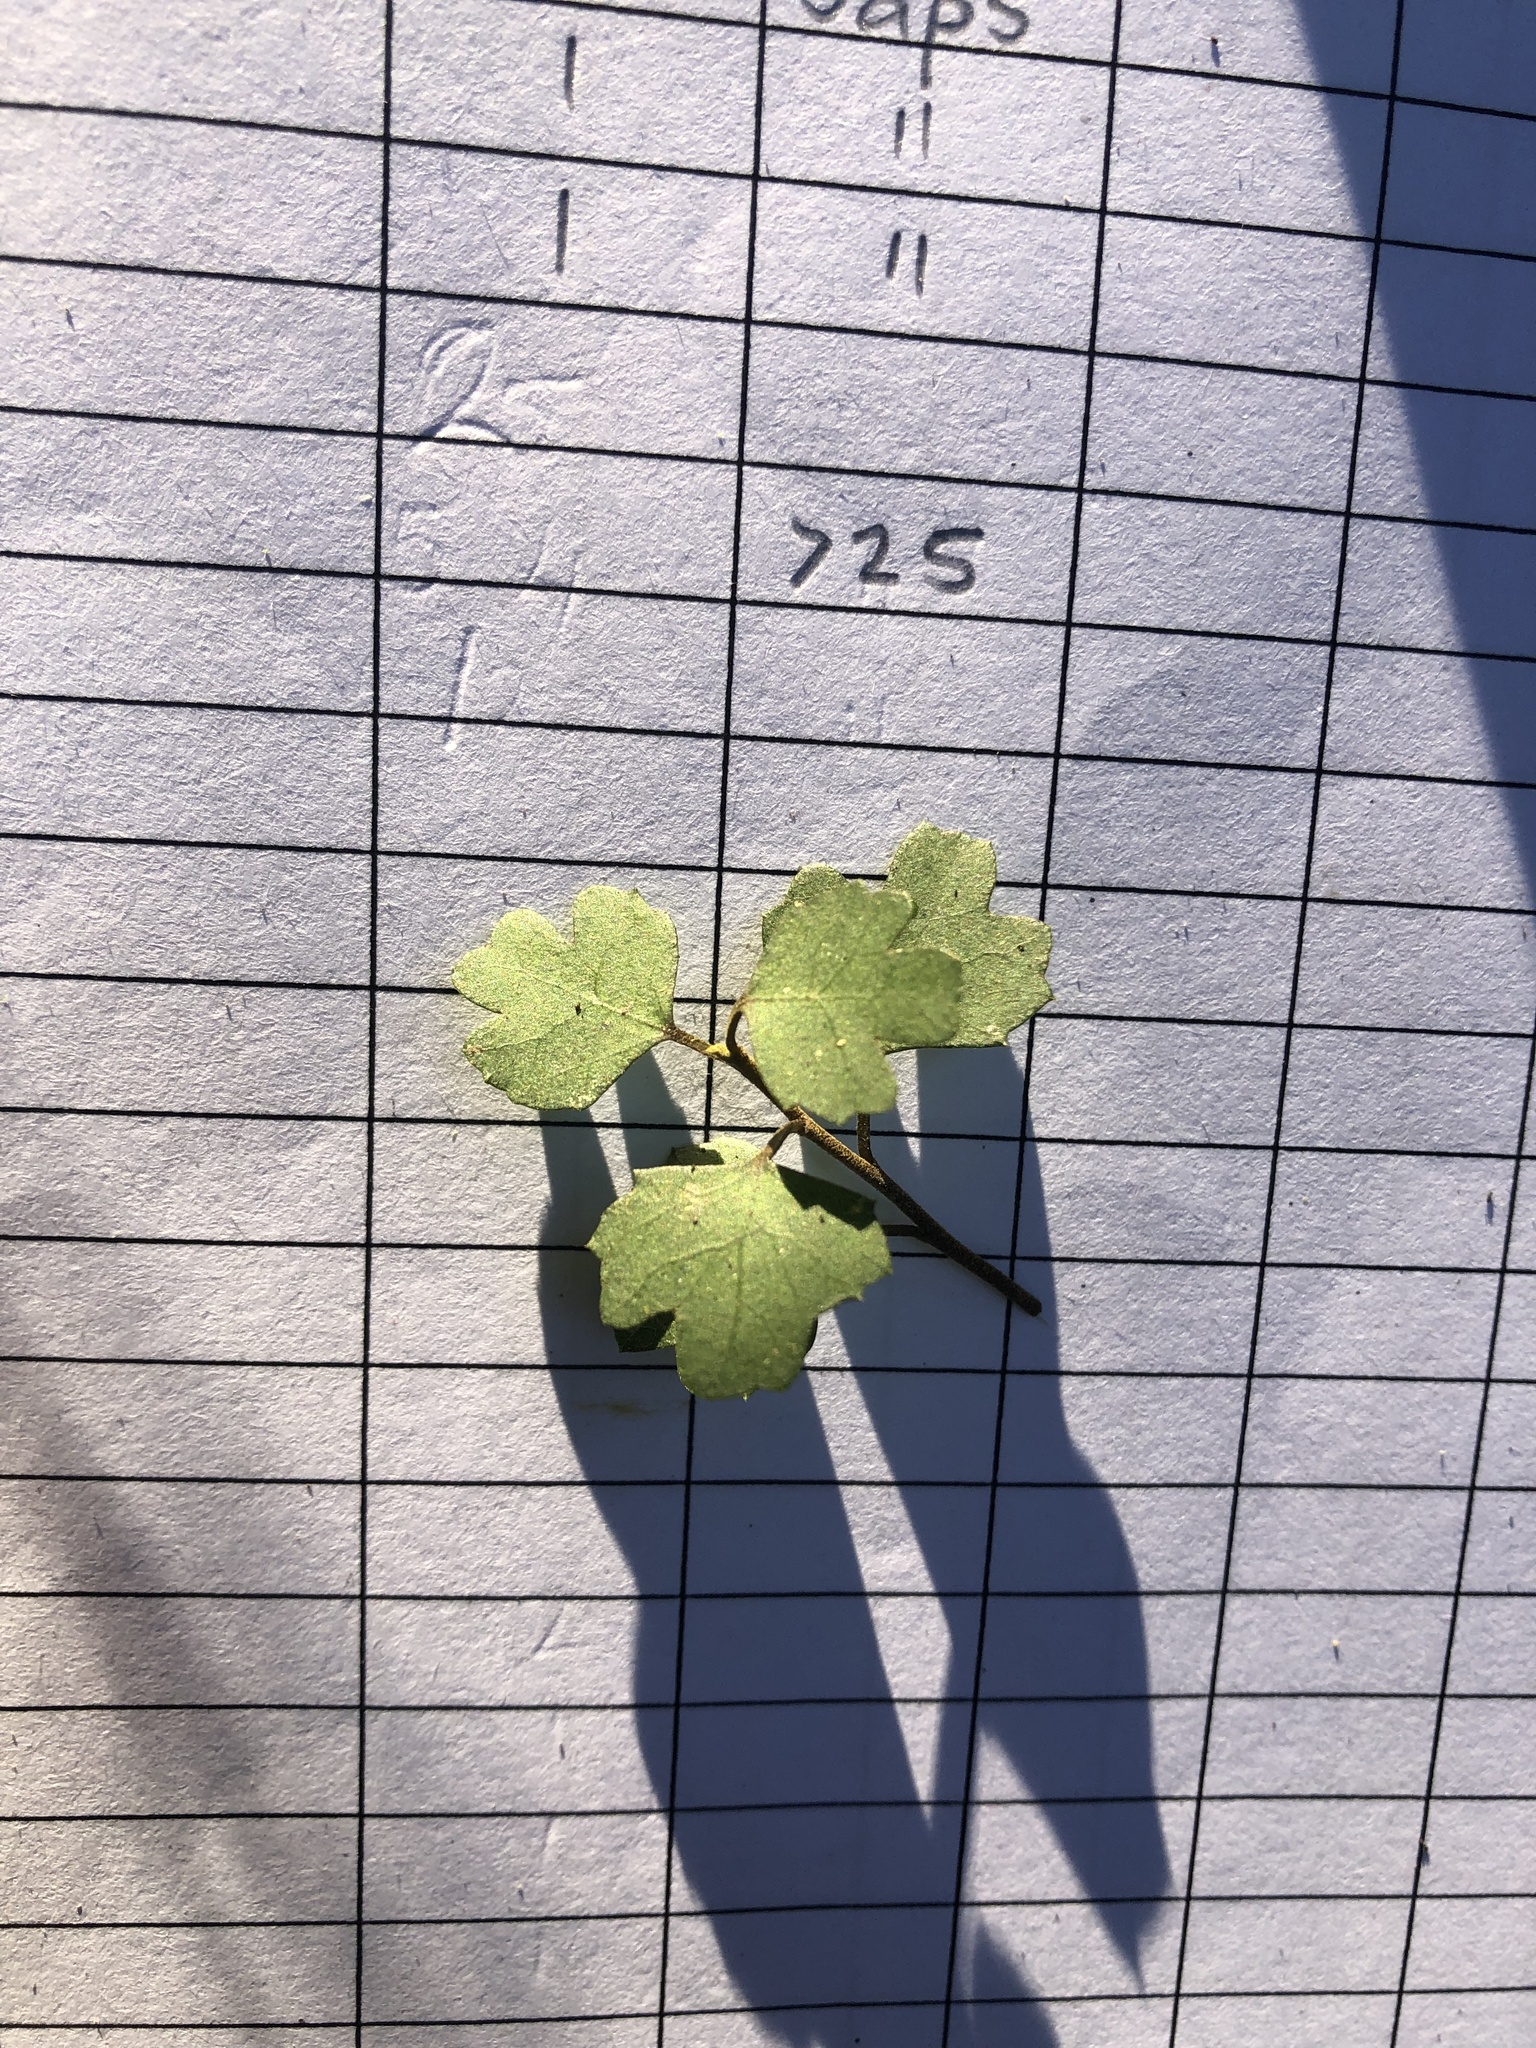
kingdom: Plantae
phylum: Tracheophyta
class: Magnoliopsida
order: Apiales
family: Pennantiaceae
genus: Pennantia
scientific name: Pennantia corymbosa
